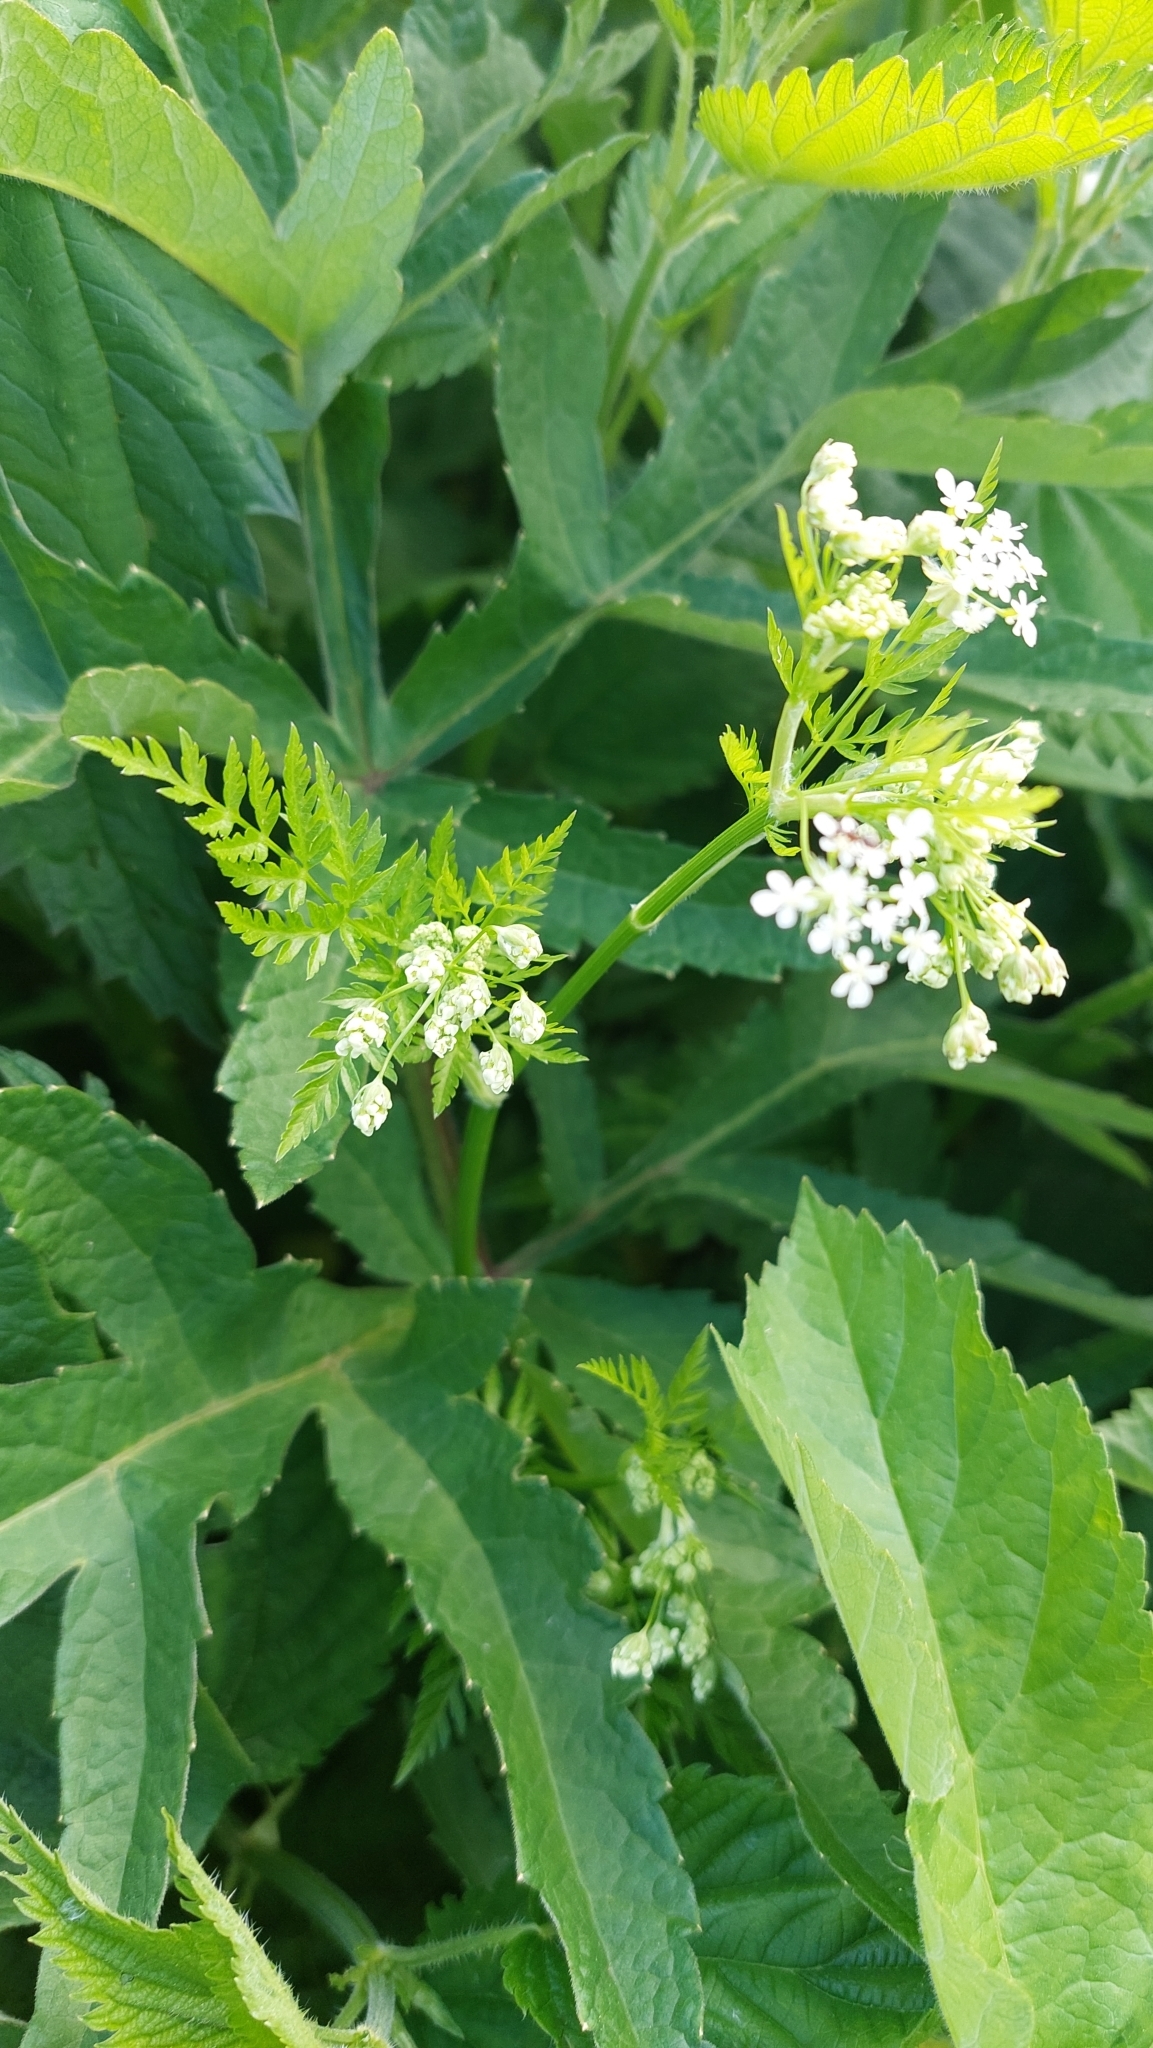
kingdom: Plantae
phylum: Tracheophyta
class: Magnoliopsida
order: Apiales
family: Apiaceae
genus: Anthriscus
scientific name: Anthriscus sylvestris
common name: Cow parsley
